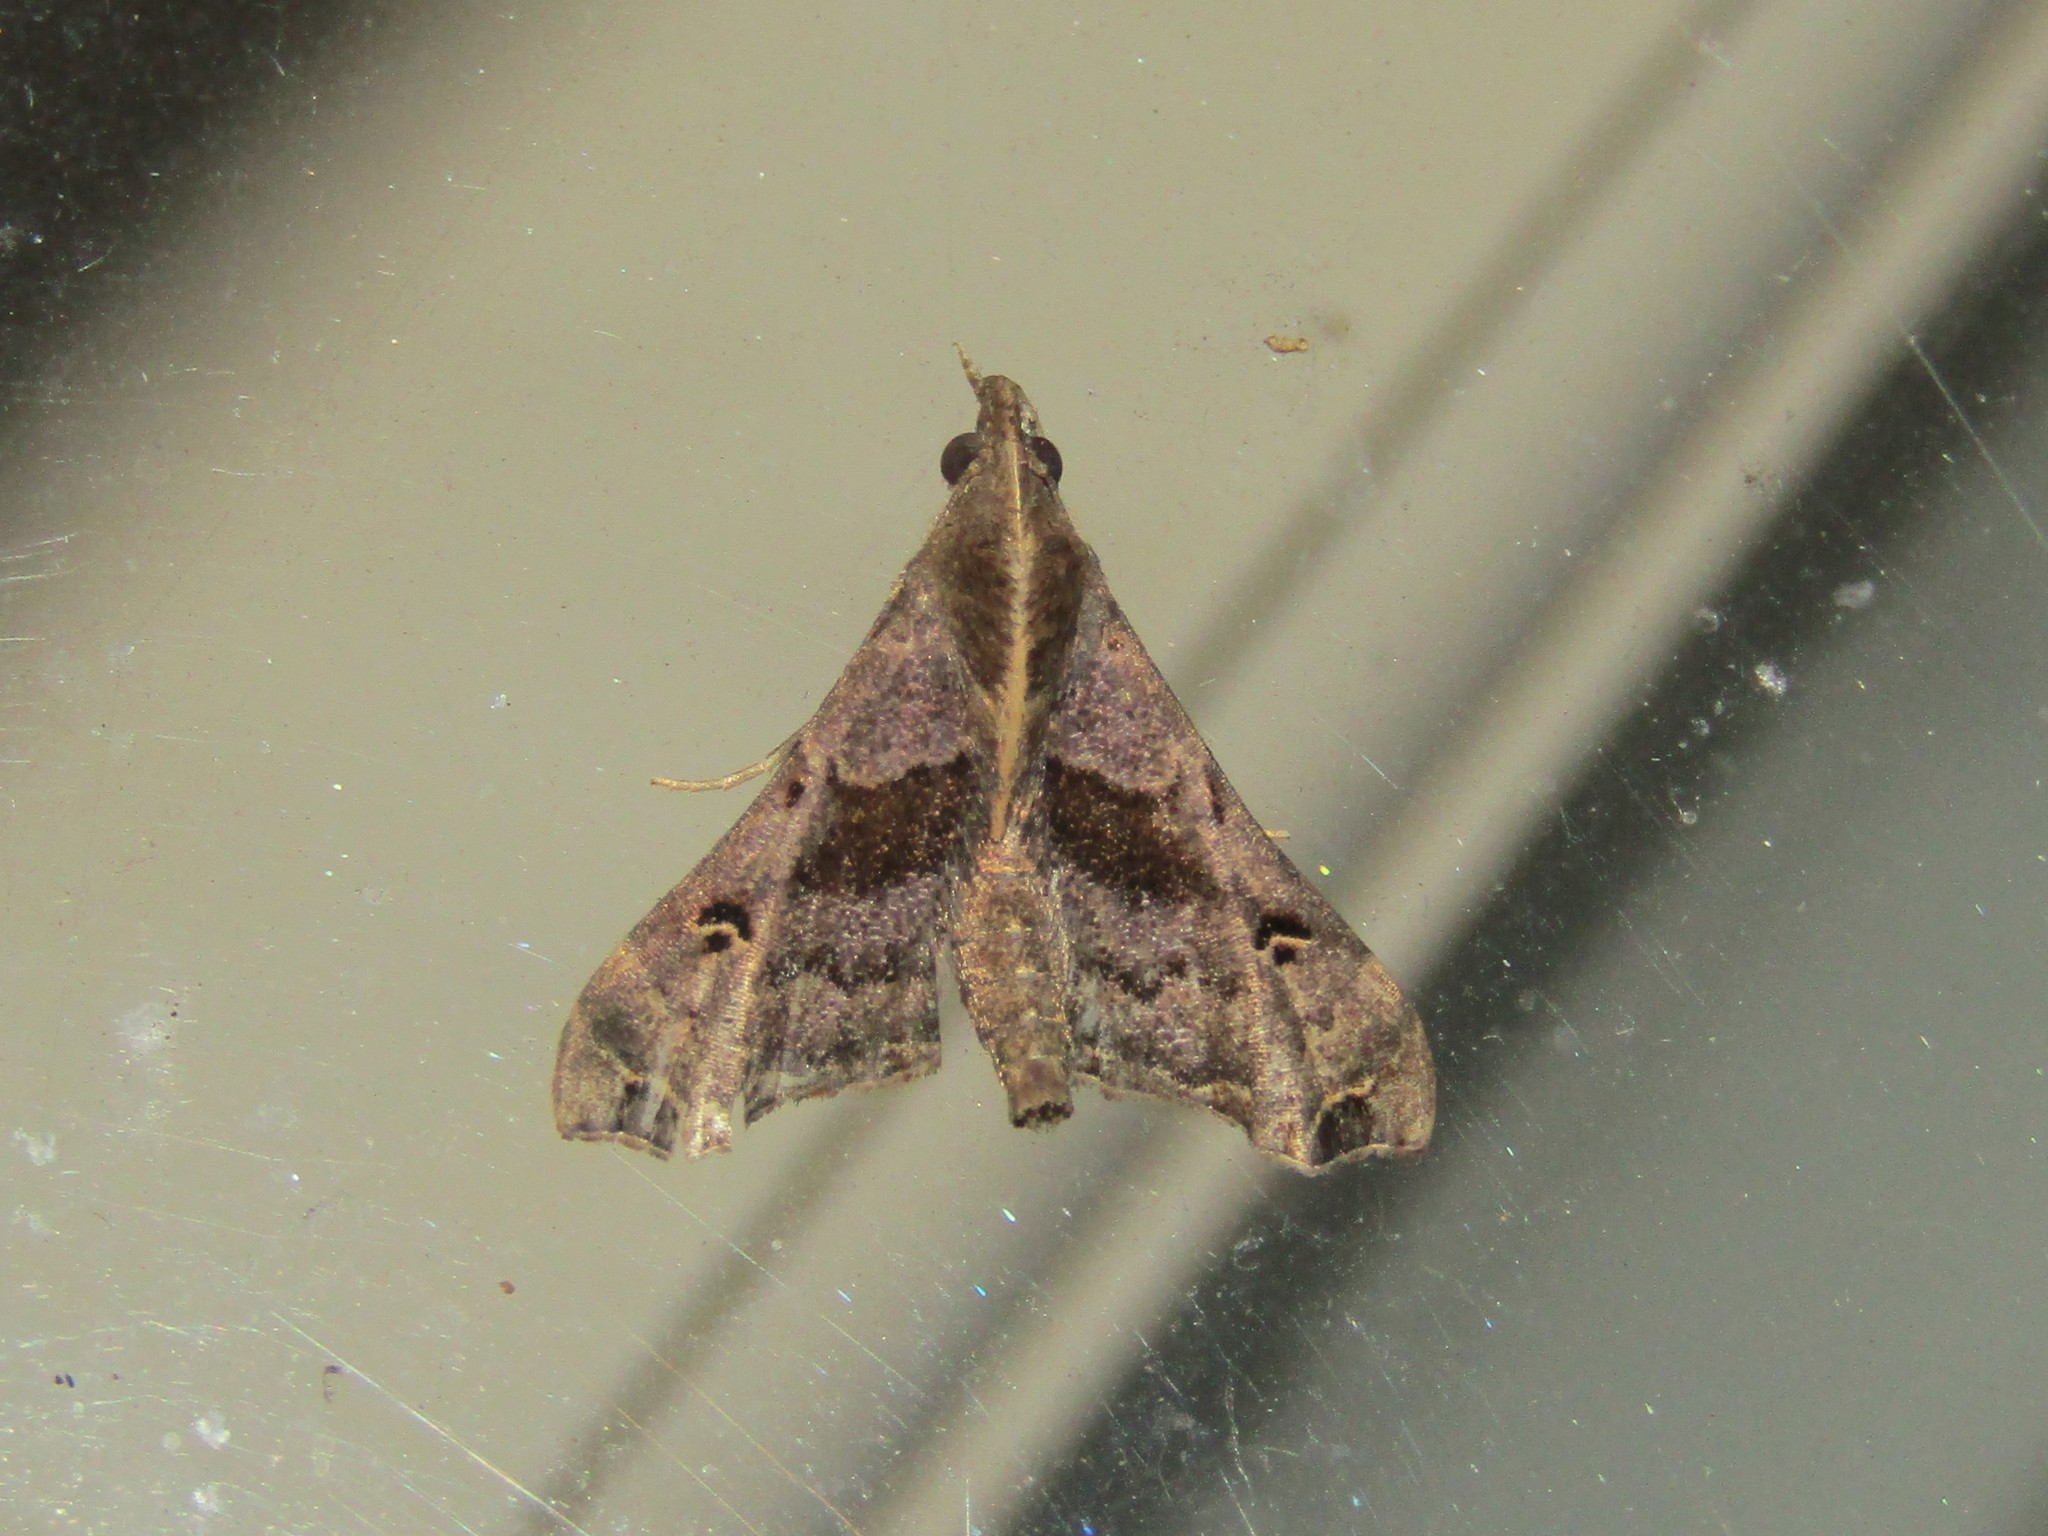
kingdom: Animalia
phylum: Arthropoda
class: Insecta
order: Lepidoptera
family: Erebidae
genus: Palthis
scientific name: Palthis asopialis
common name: Faint-spotted palthis moth
